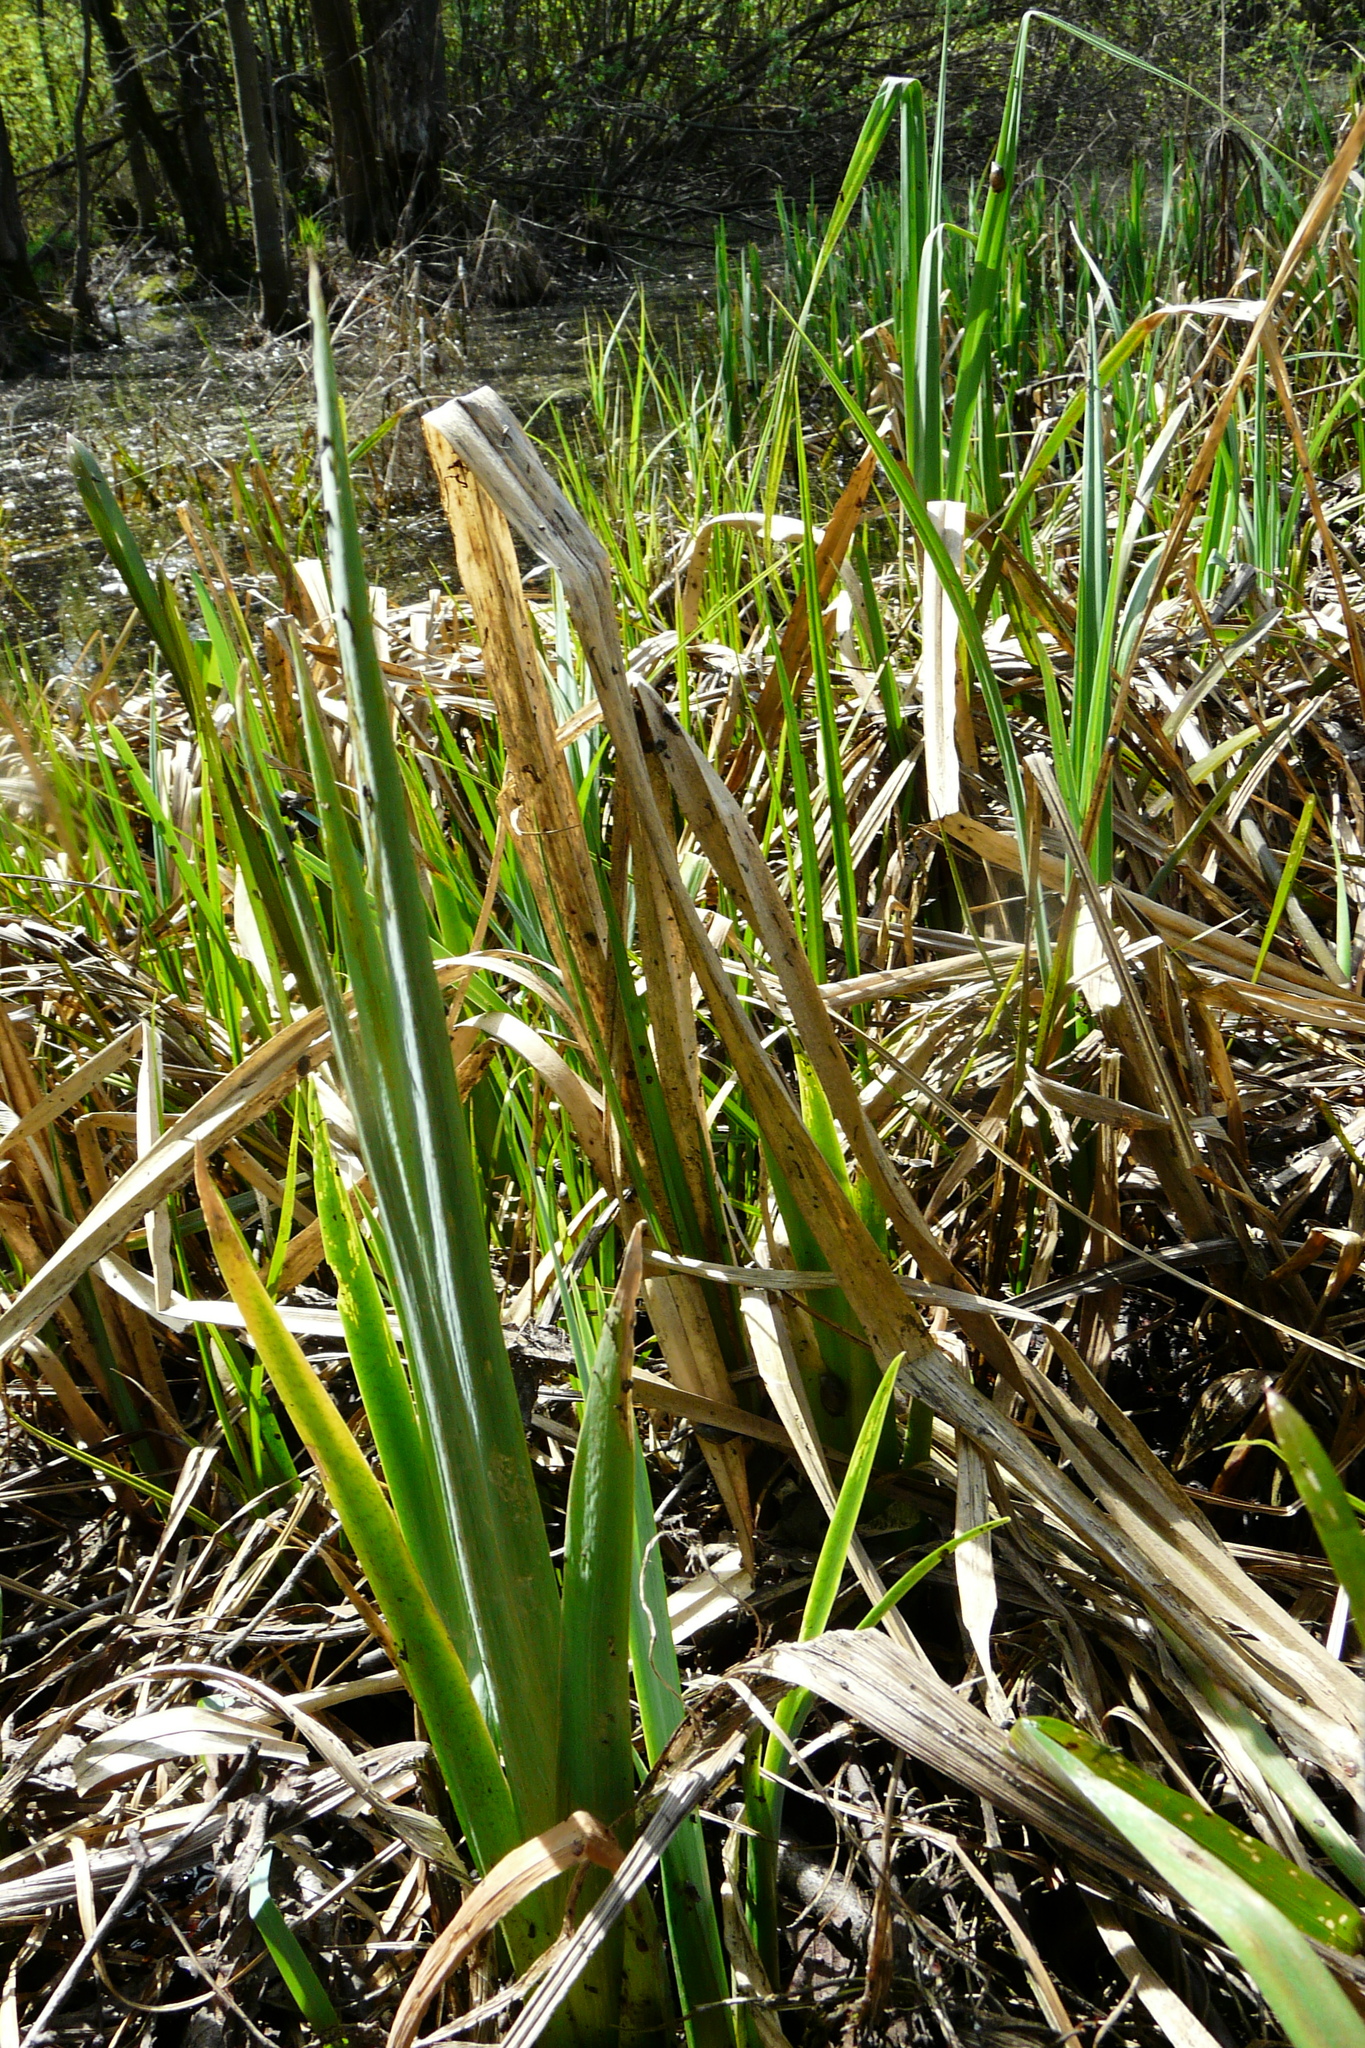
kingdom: Plantae
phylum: Tracheophyta
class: Liliopsida
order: Asparagales
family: Iridaceae
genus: Iris
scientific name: Iris pseudacorus
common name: Yellow flag
